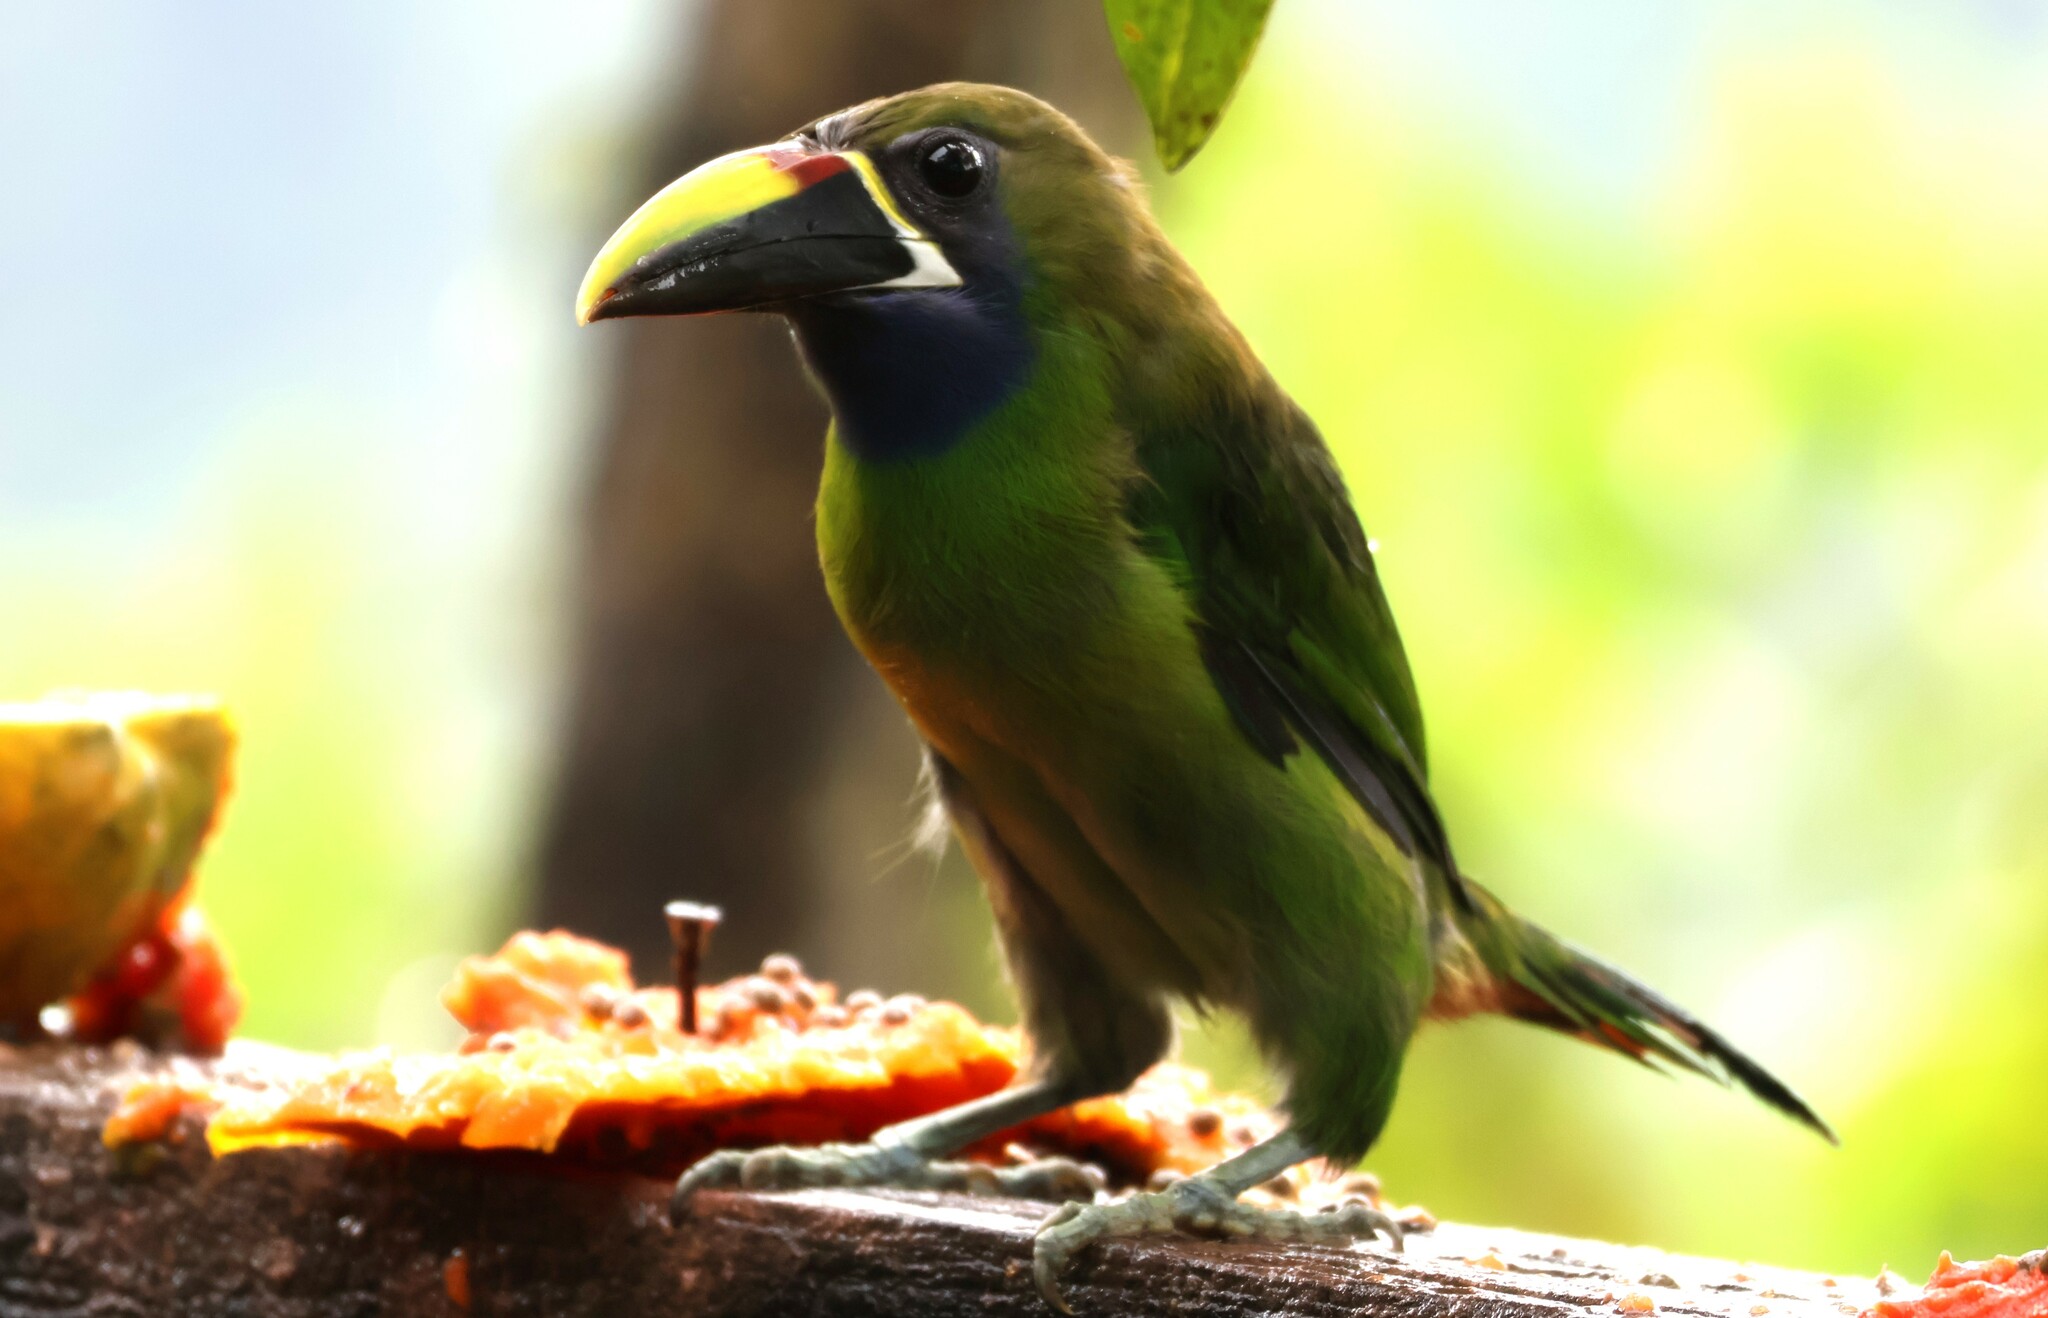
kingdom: Animalia
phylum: Chordata
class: Aves
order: Piciformes
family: Ramphastidae
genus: Aulacorhynchus
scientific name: Aulacorhynchus prasinus
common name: Emerald toucanet
